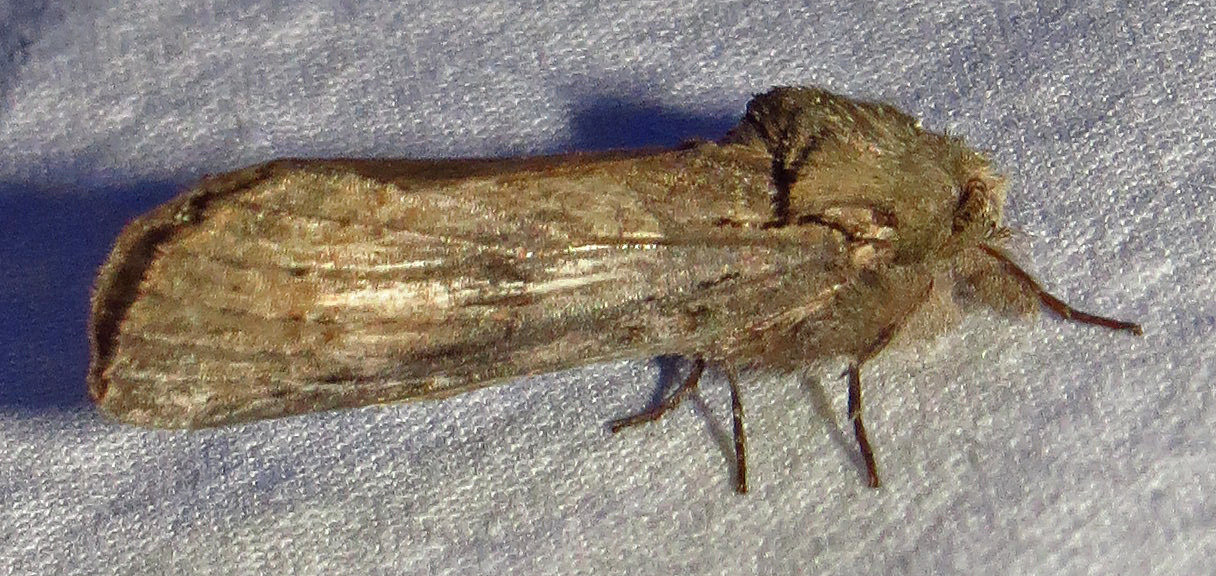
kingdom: Animalia
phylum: Arthropoda
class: Insecta
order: Lepidoptera
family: Notodontidae
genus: Schizura
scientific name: Schizura
